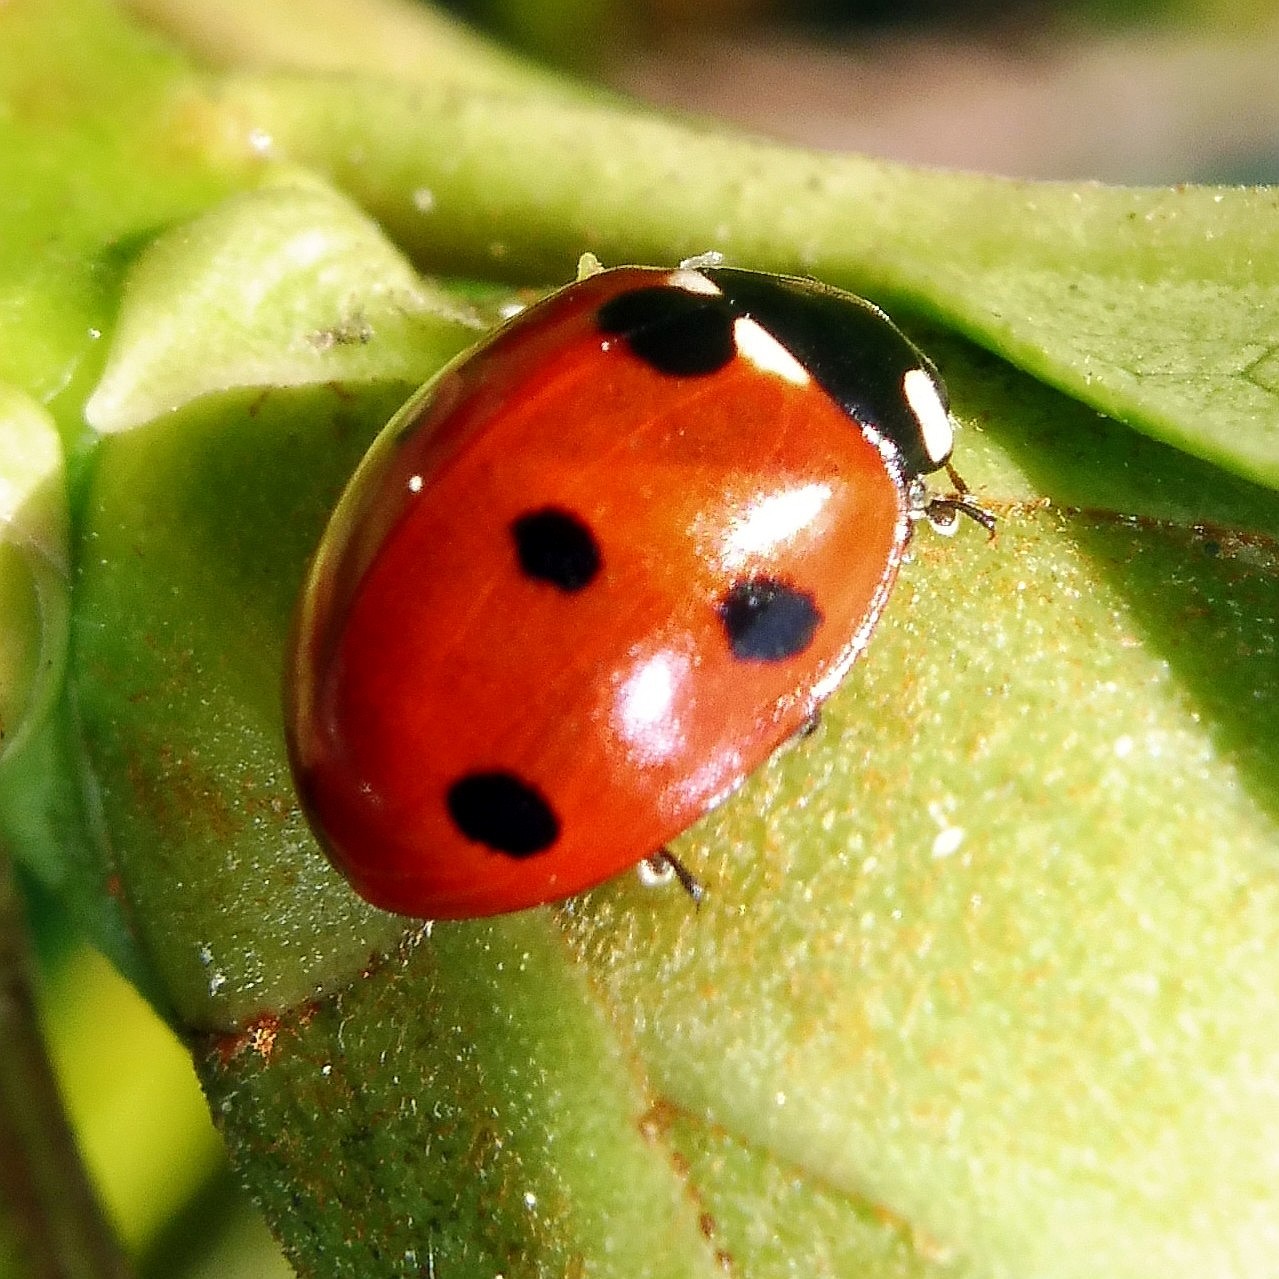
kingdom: Animalia
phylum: Arthropoda
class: Insecta
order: Coleoptera
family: Coccinellidae
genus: Coccinella
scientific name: Coccinella septempunctata
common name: Sevenspotted lady beetle
